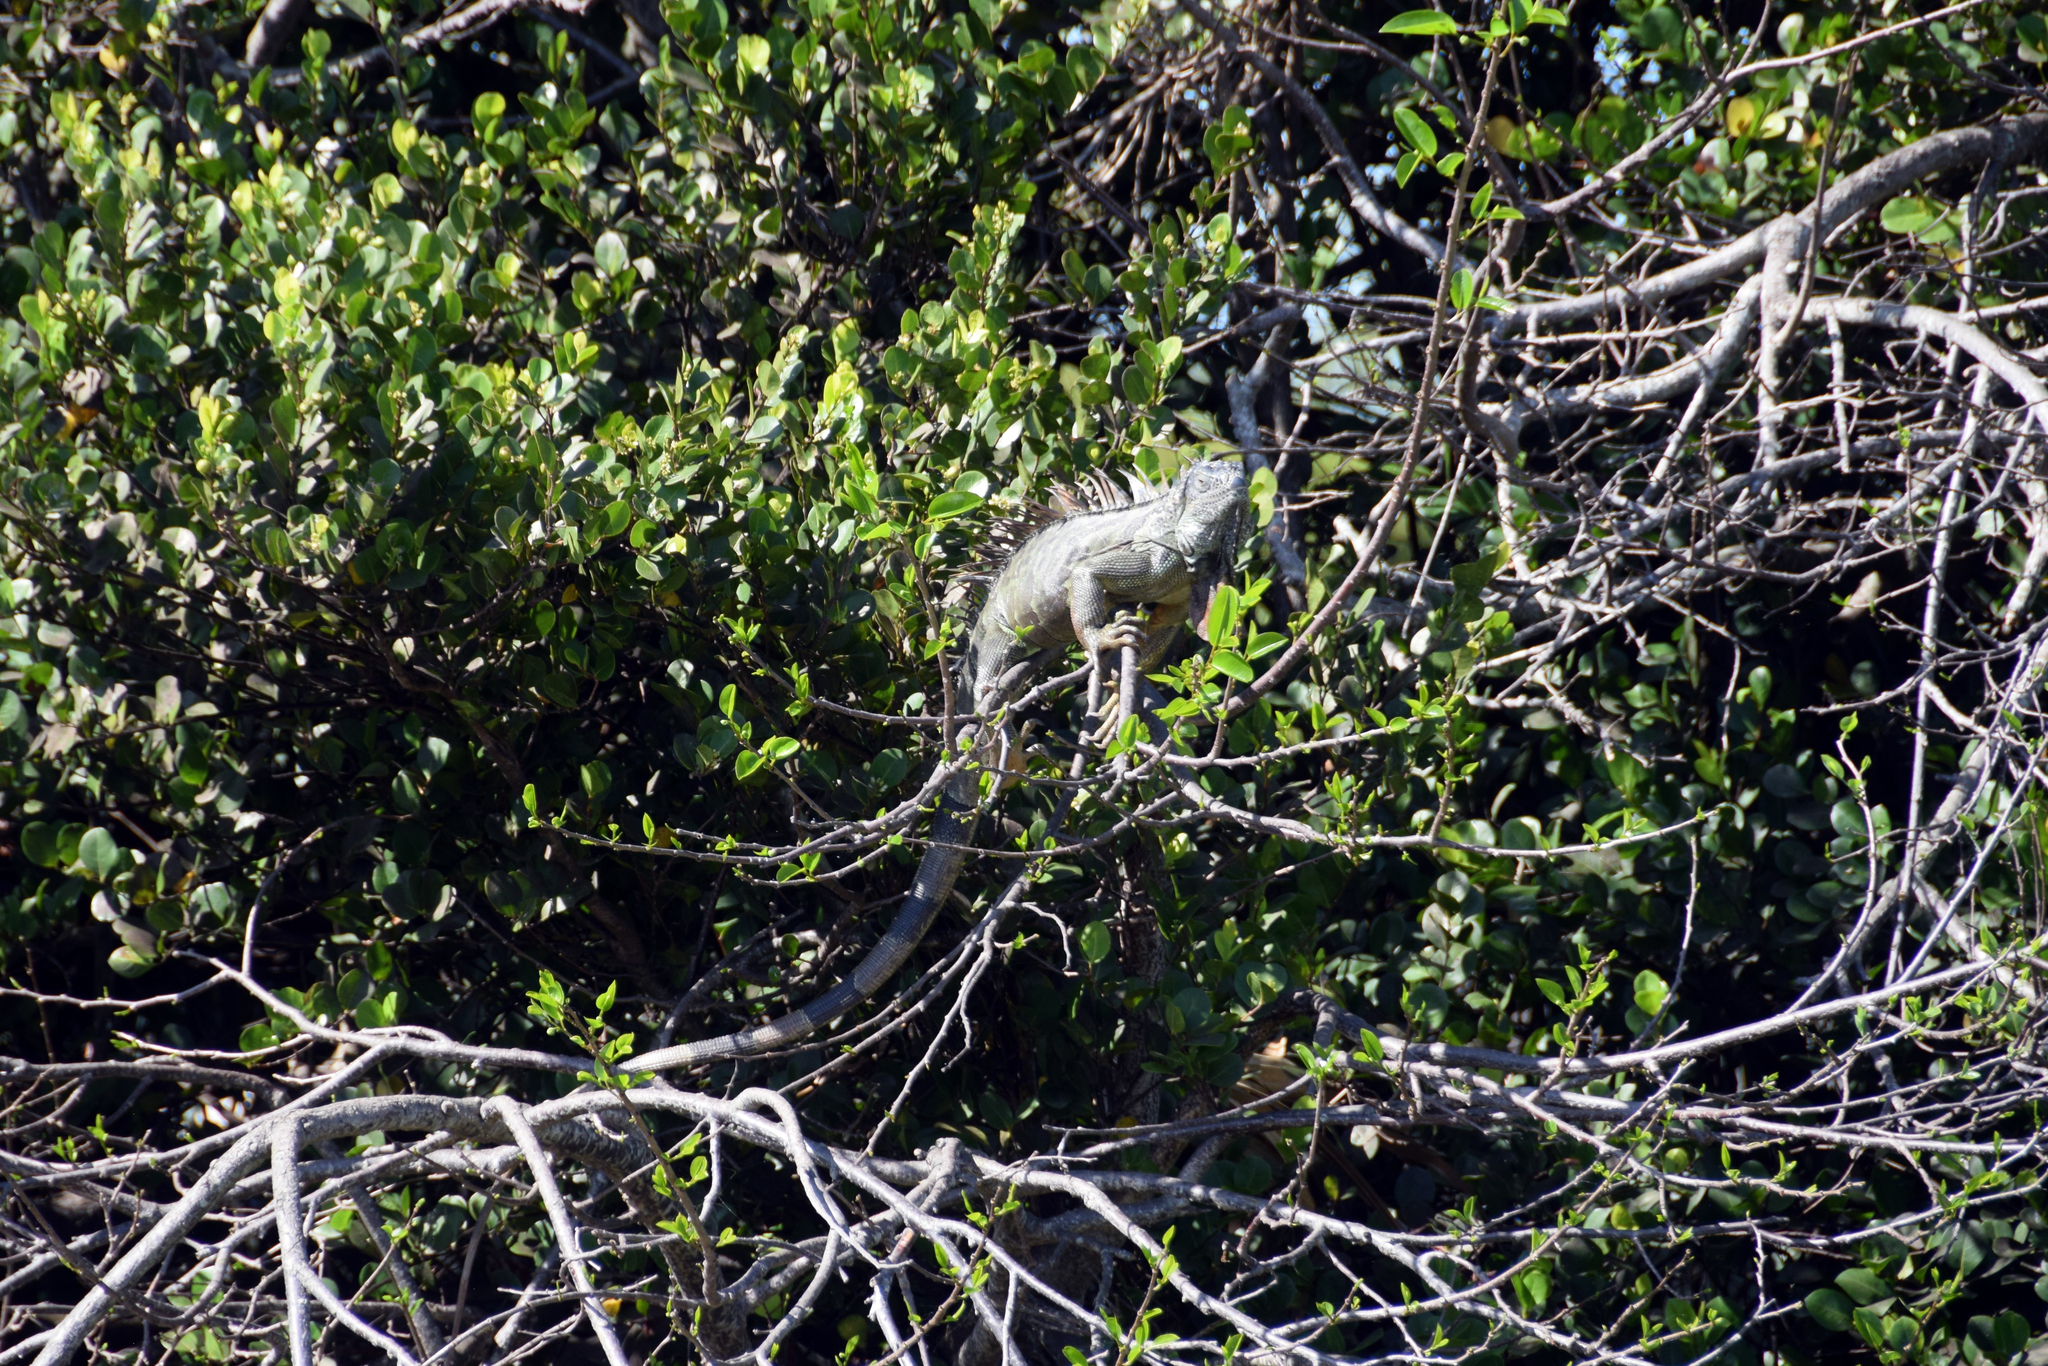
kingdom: Animalia
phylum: Chordata
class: Squamata
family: Iguanidae
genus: Iguana
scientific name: Iguana iguana
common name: Green iguana
